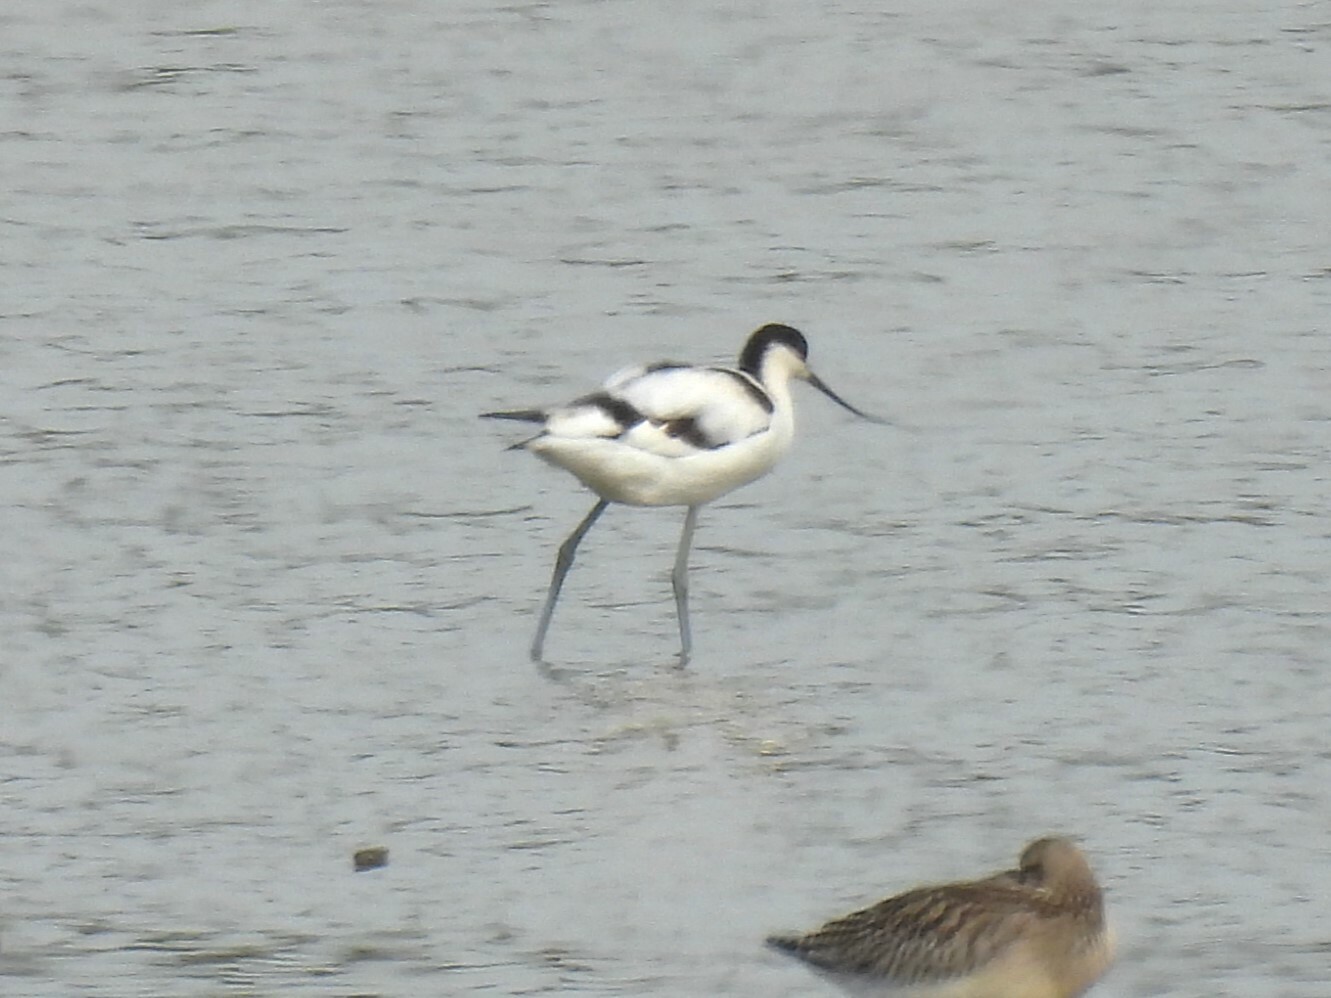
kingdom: Animalia
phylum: Chordata
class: Aves
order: Charadriiformes
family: Recurvirostridae
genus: Recurvirostra
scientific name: Recurvirostra avosetta
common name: Pied avocet
